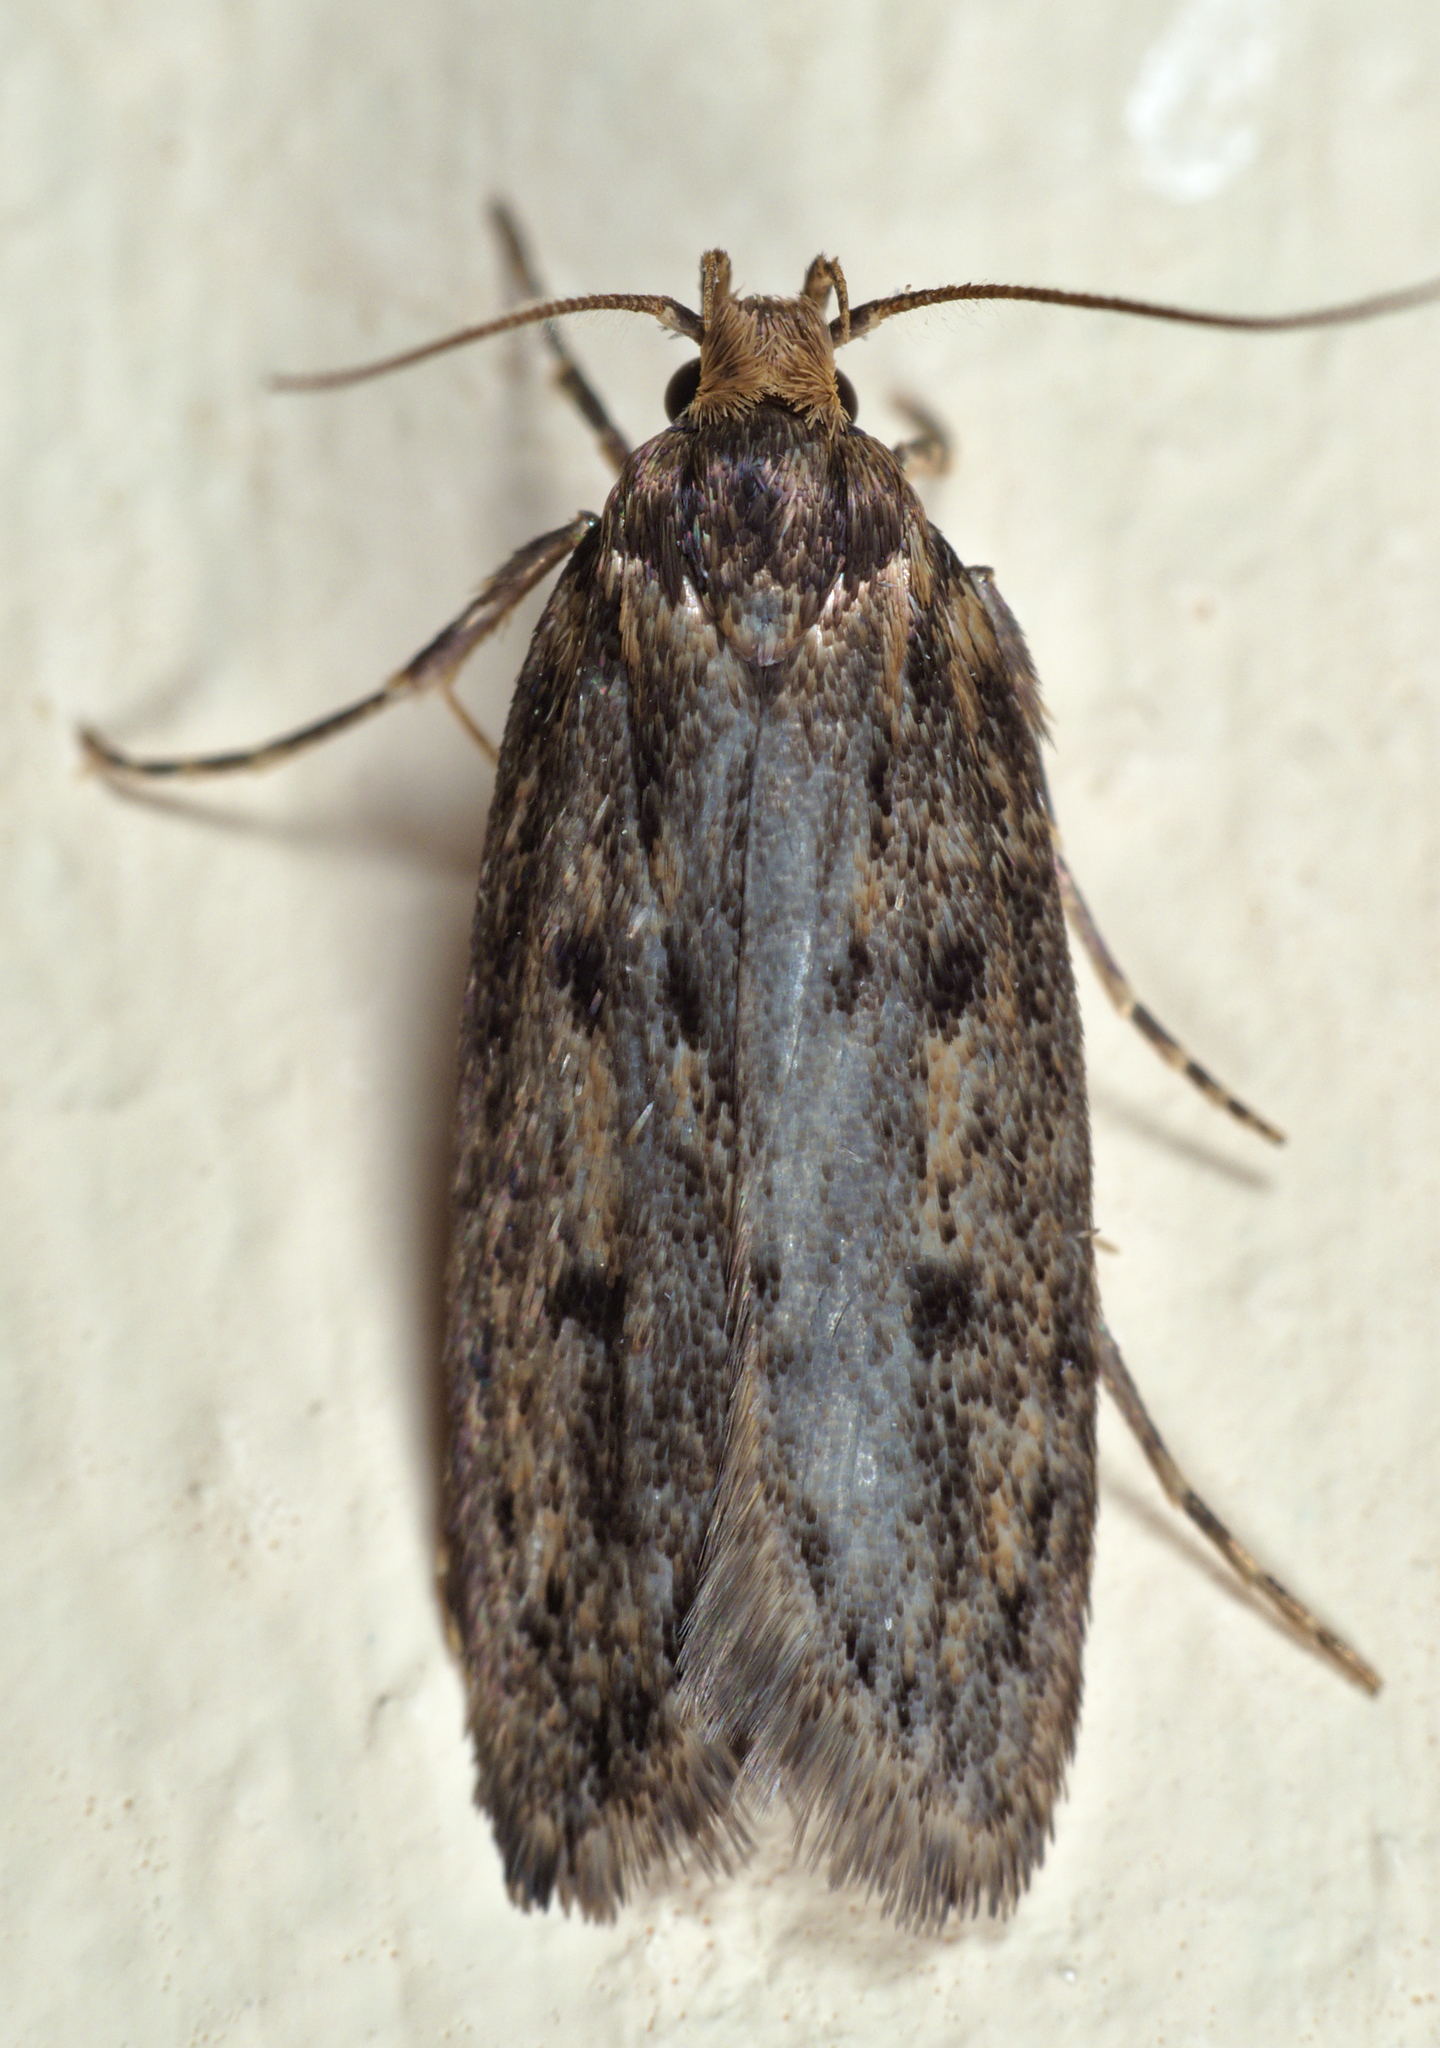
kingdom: Animalia
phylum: Arthropoda
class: Insecta
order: Lepidoptera
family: Oecophoridae
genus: Hofmannophila
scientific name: Hofmannophila pseudospretella
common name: Brown house moth
